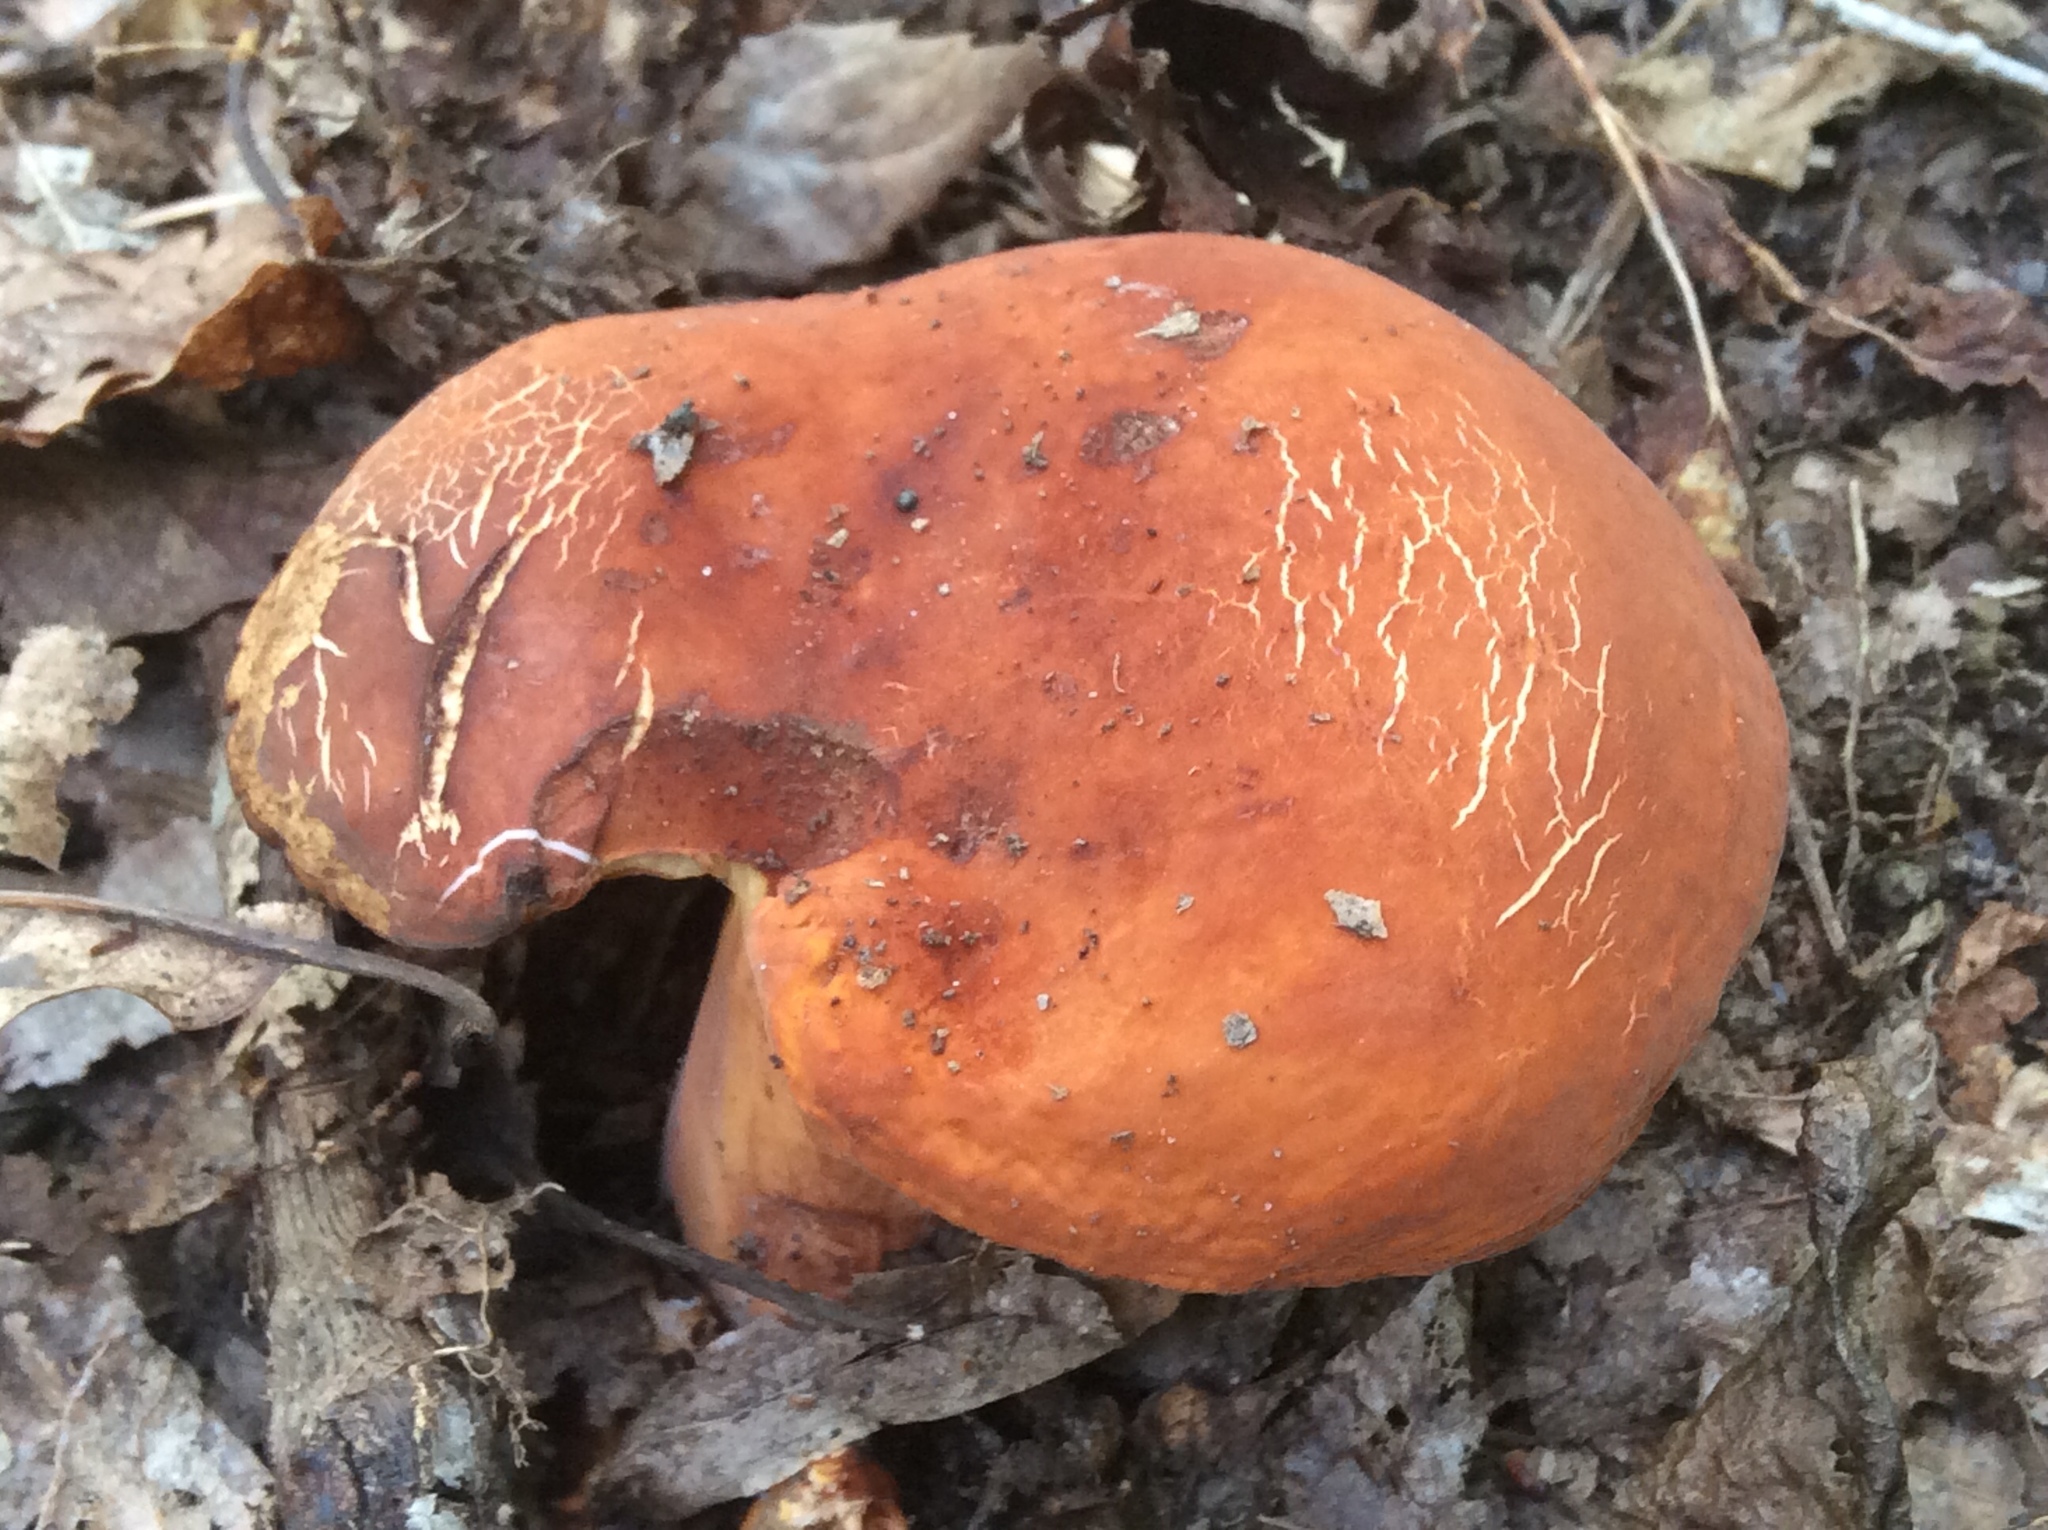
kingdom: Fungi
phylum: Basidiomycota
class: Agaricomycetes
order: Russulales
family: Russulaceae
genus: Lactifluus
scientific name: Lactifluus volemus
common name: Fishy milkcap
